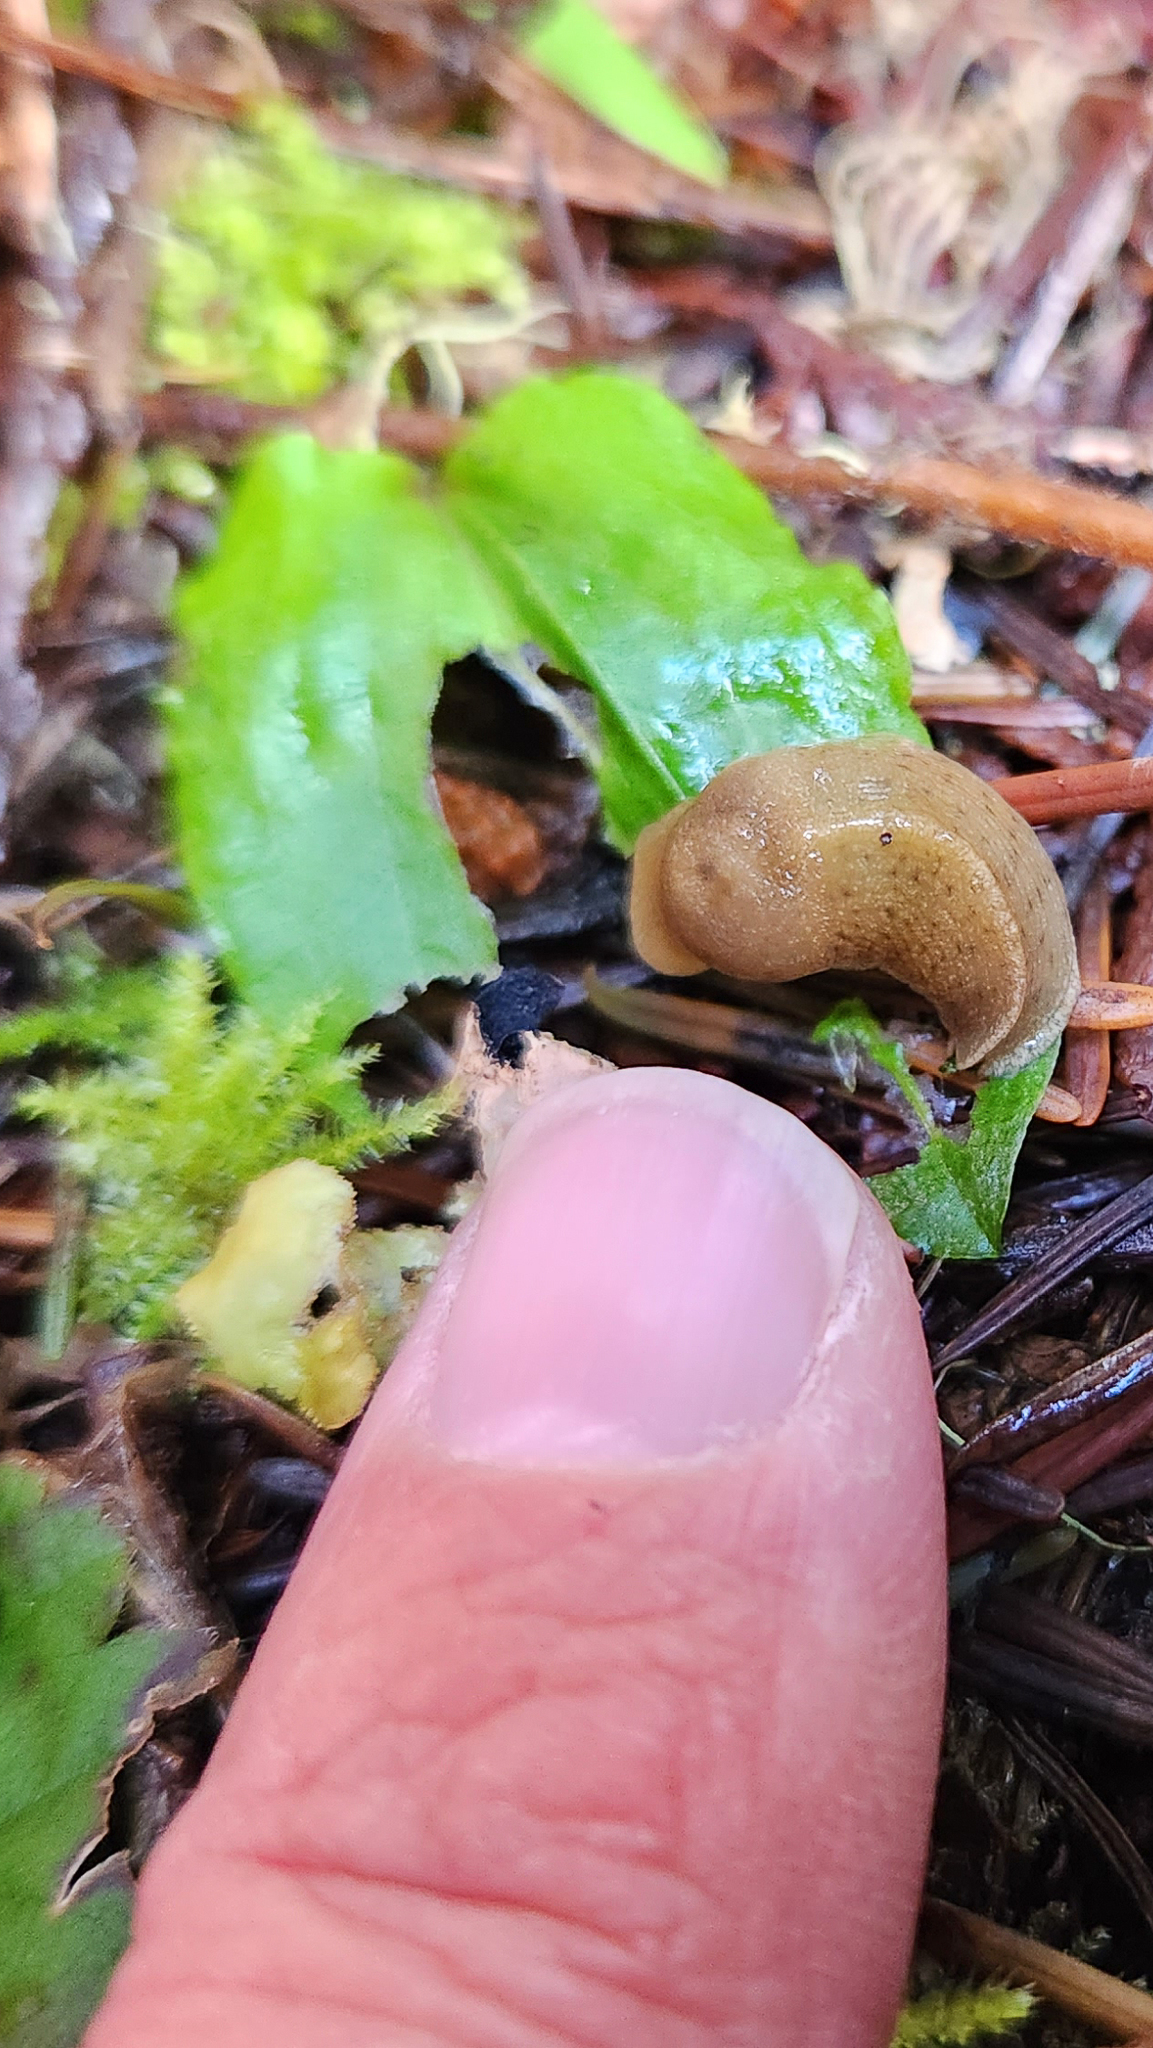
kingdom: Animalia
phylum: Mollusca
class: Gastropoda
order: Stylommatophora
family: Ariolimacidae
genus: Ariolimax
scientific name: Ariolimax columbianus
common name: Pacific banana slug
